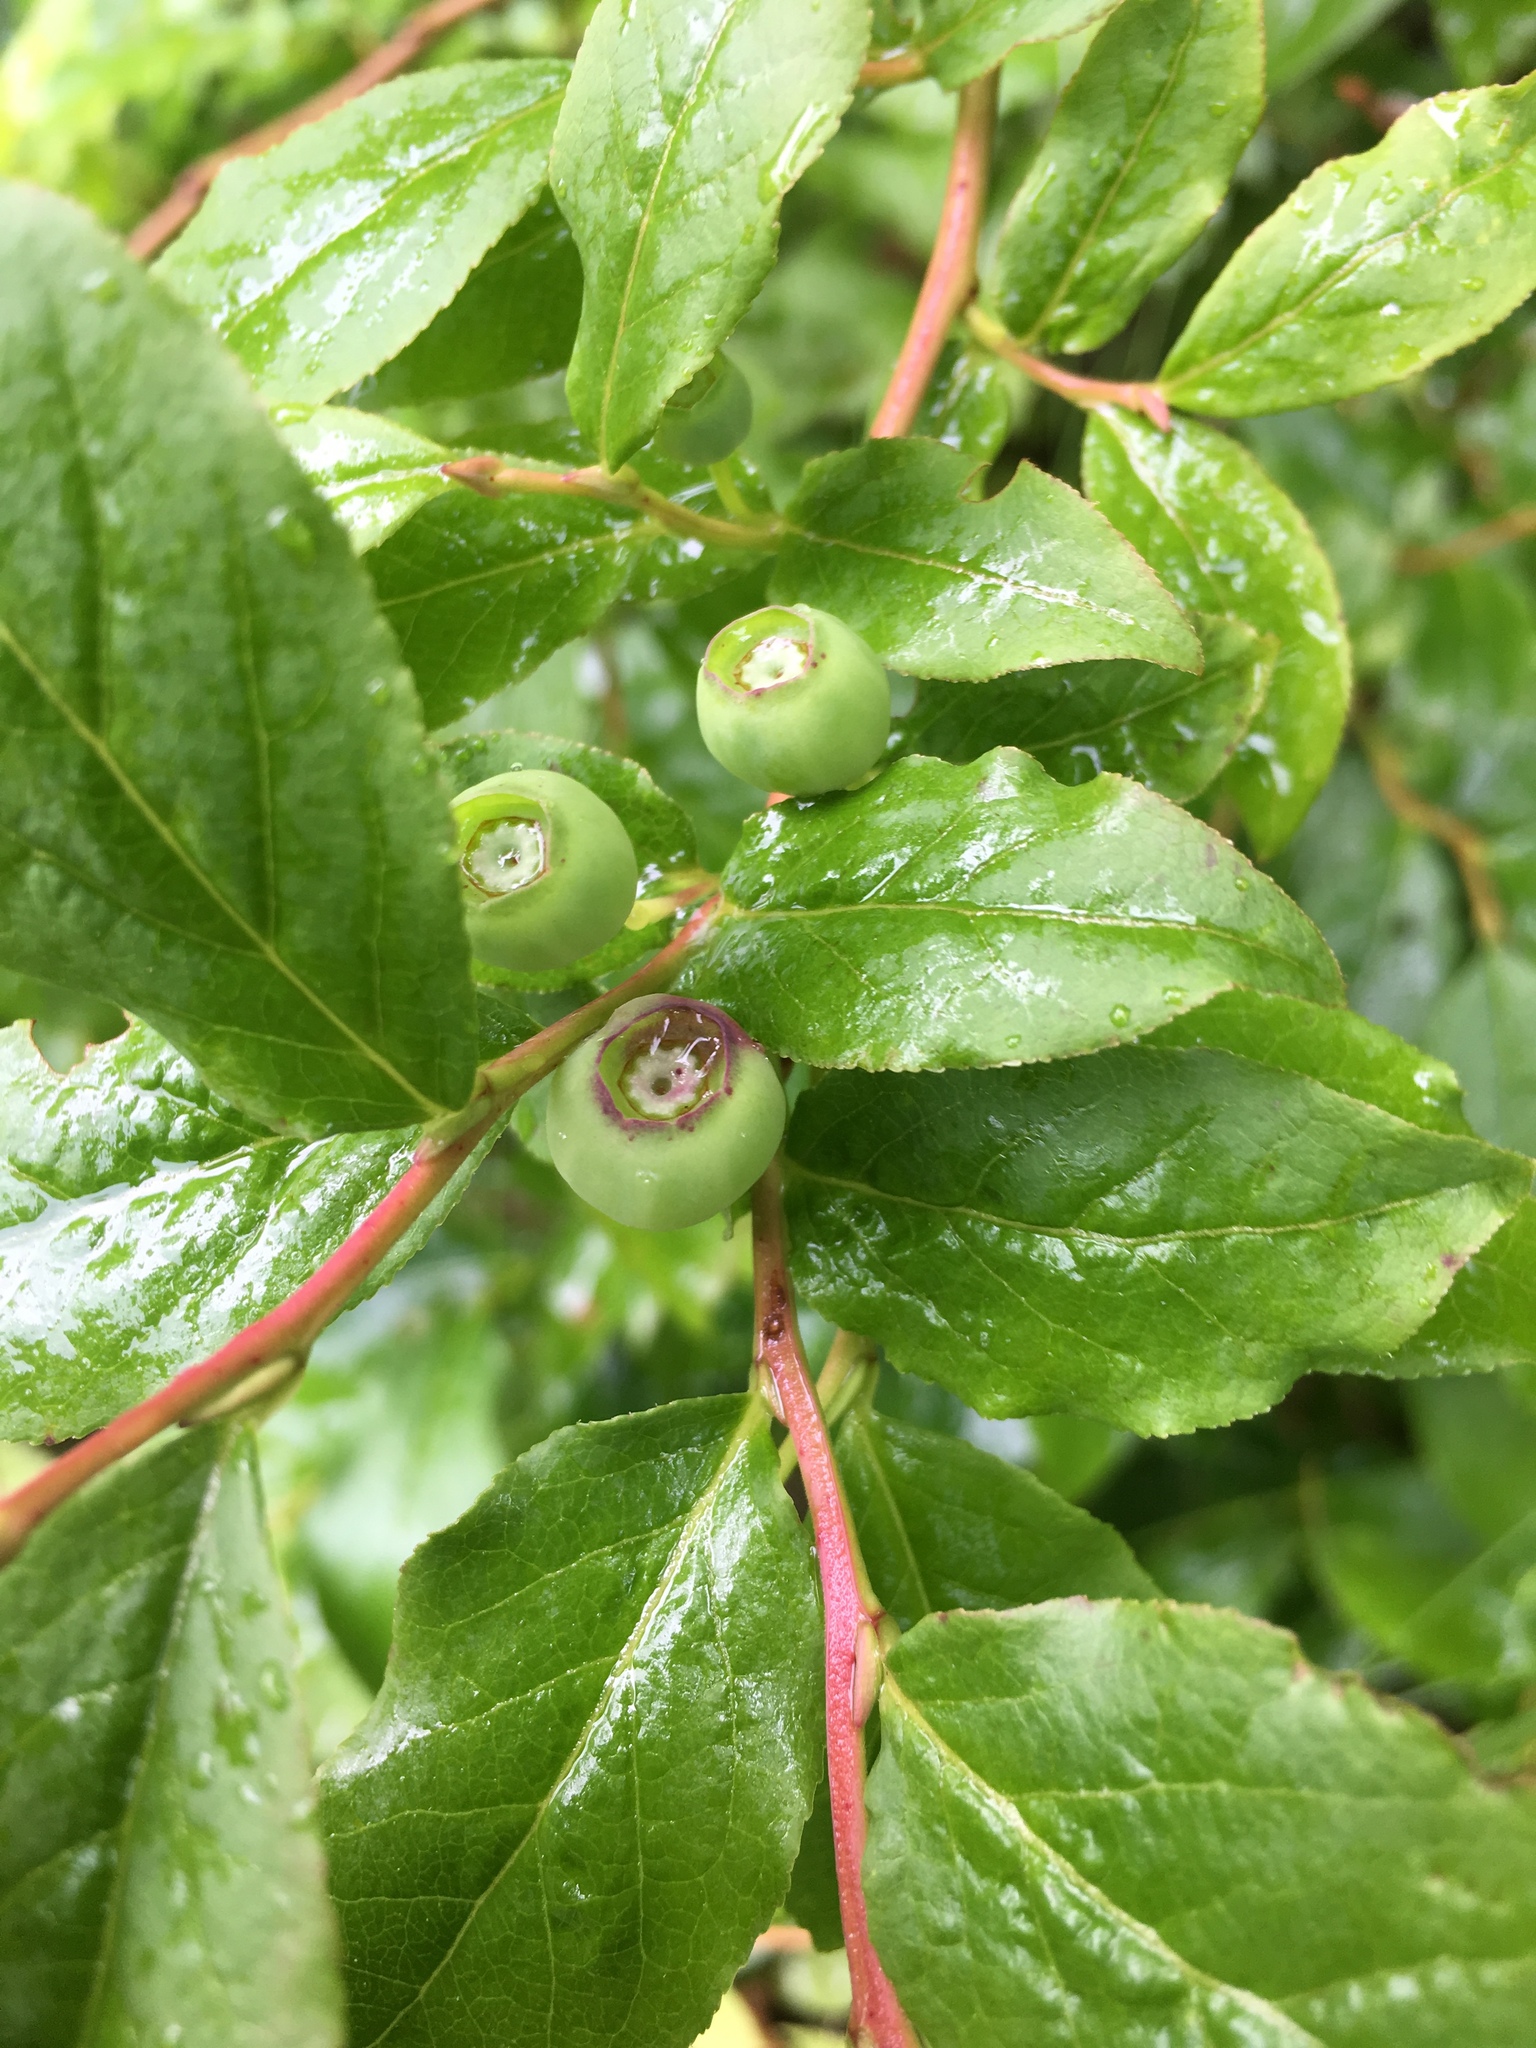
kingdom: Plantae
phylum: Tracheophyta
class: Magnoliopsida
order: Ericales
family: Ericaceae
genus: Vaccinium
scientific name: Vaccinium membranaceum
